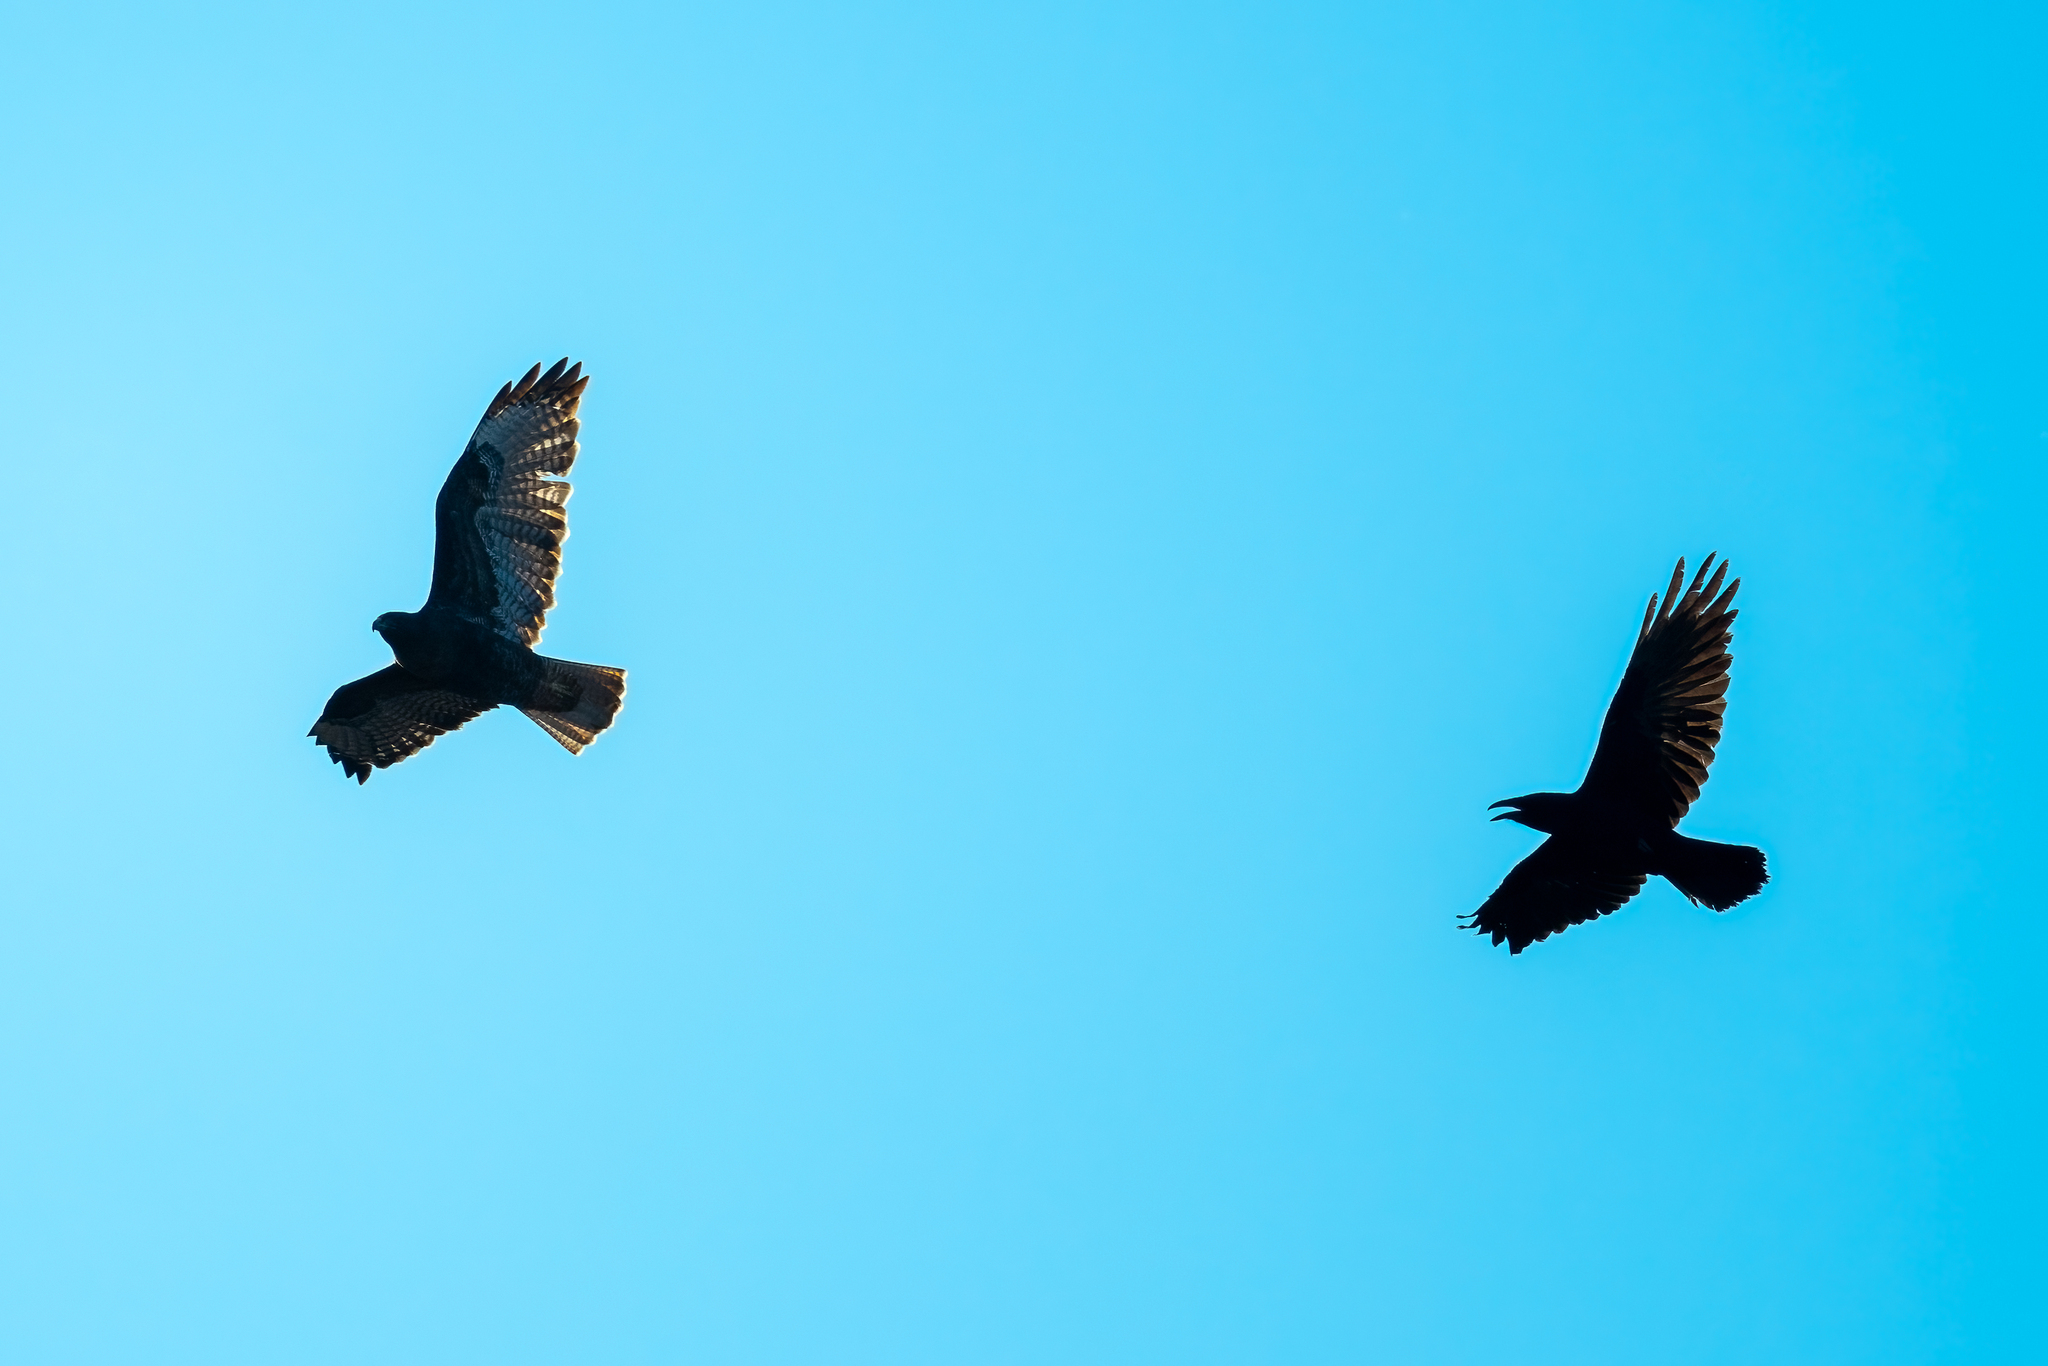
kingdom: Animalia
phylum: Chordata
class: Aves
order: Passeriformes
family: Corvidae
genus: Corvus
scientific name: Corvus corax
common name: Common raven
